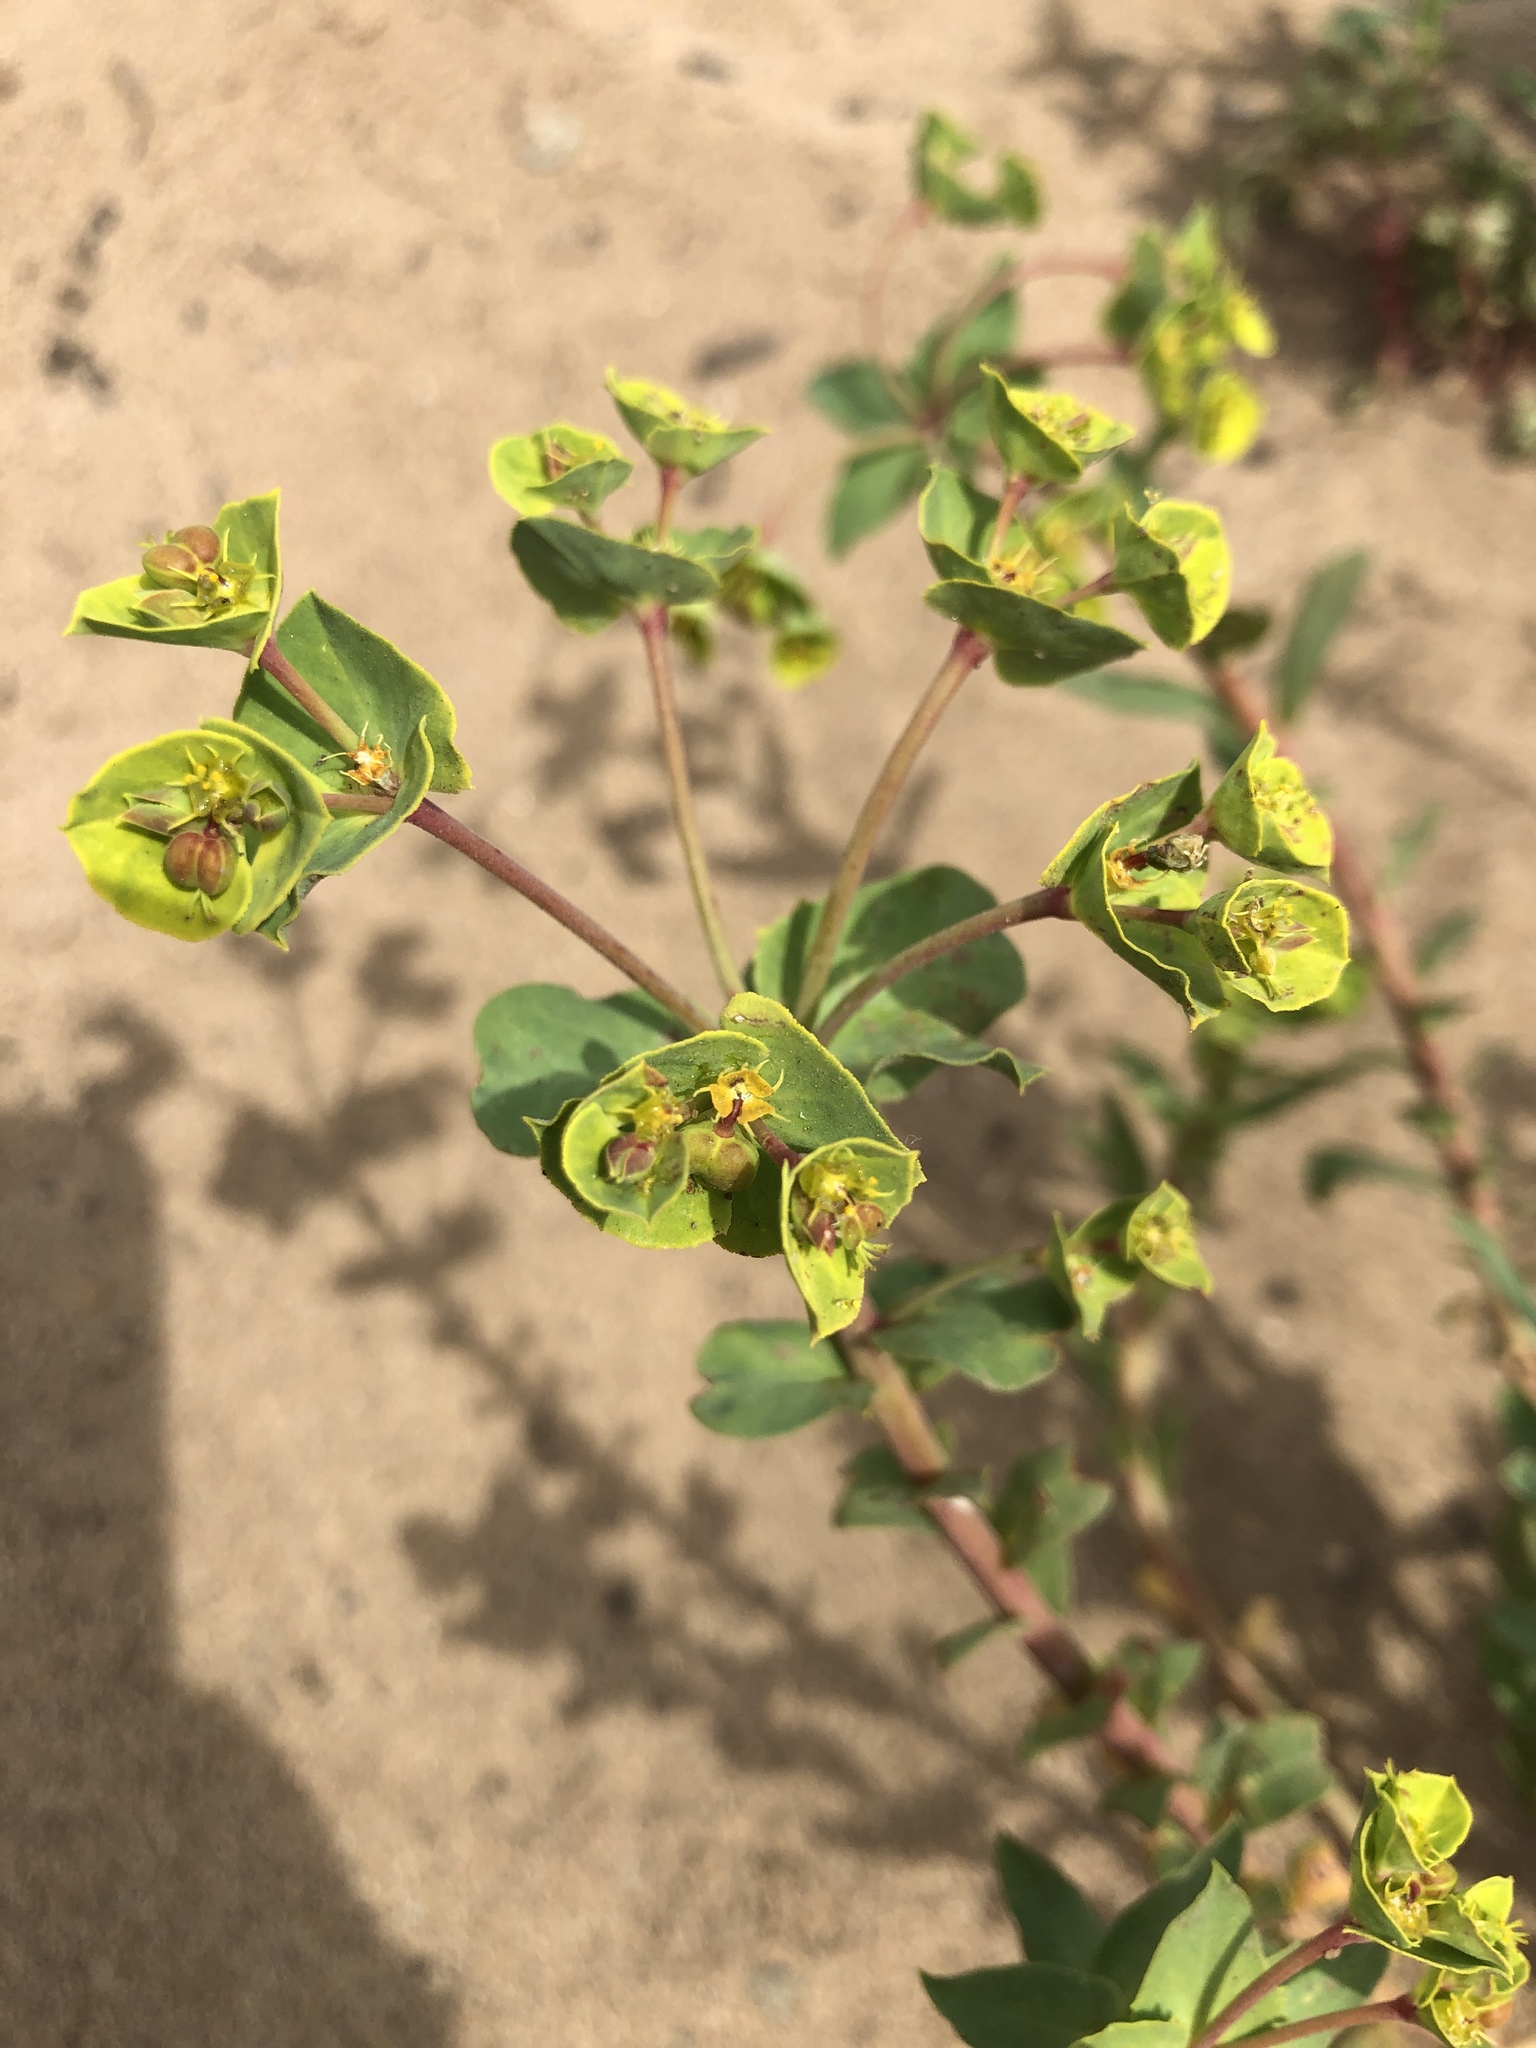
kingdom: Plantae
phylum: Tracheophyta
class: Magnoliopsida
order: Malpighiales
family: Euphorbiaceae
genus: Euphorbia
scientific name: Euphorbia terracina
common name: Geraldton carnation weed
